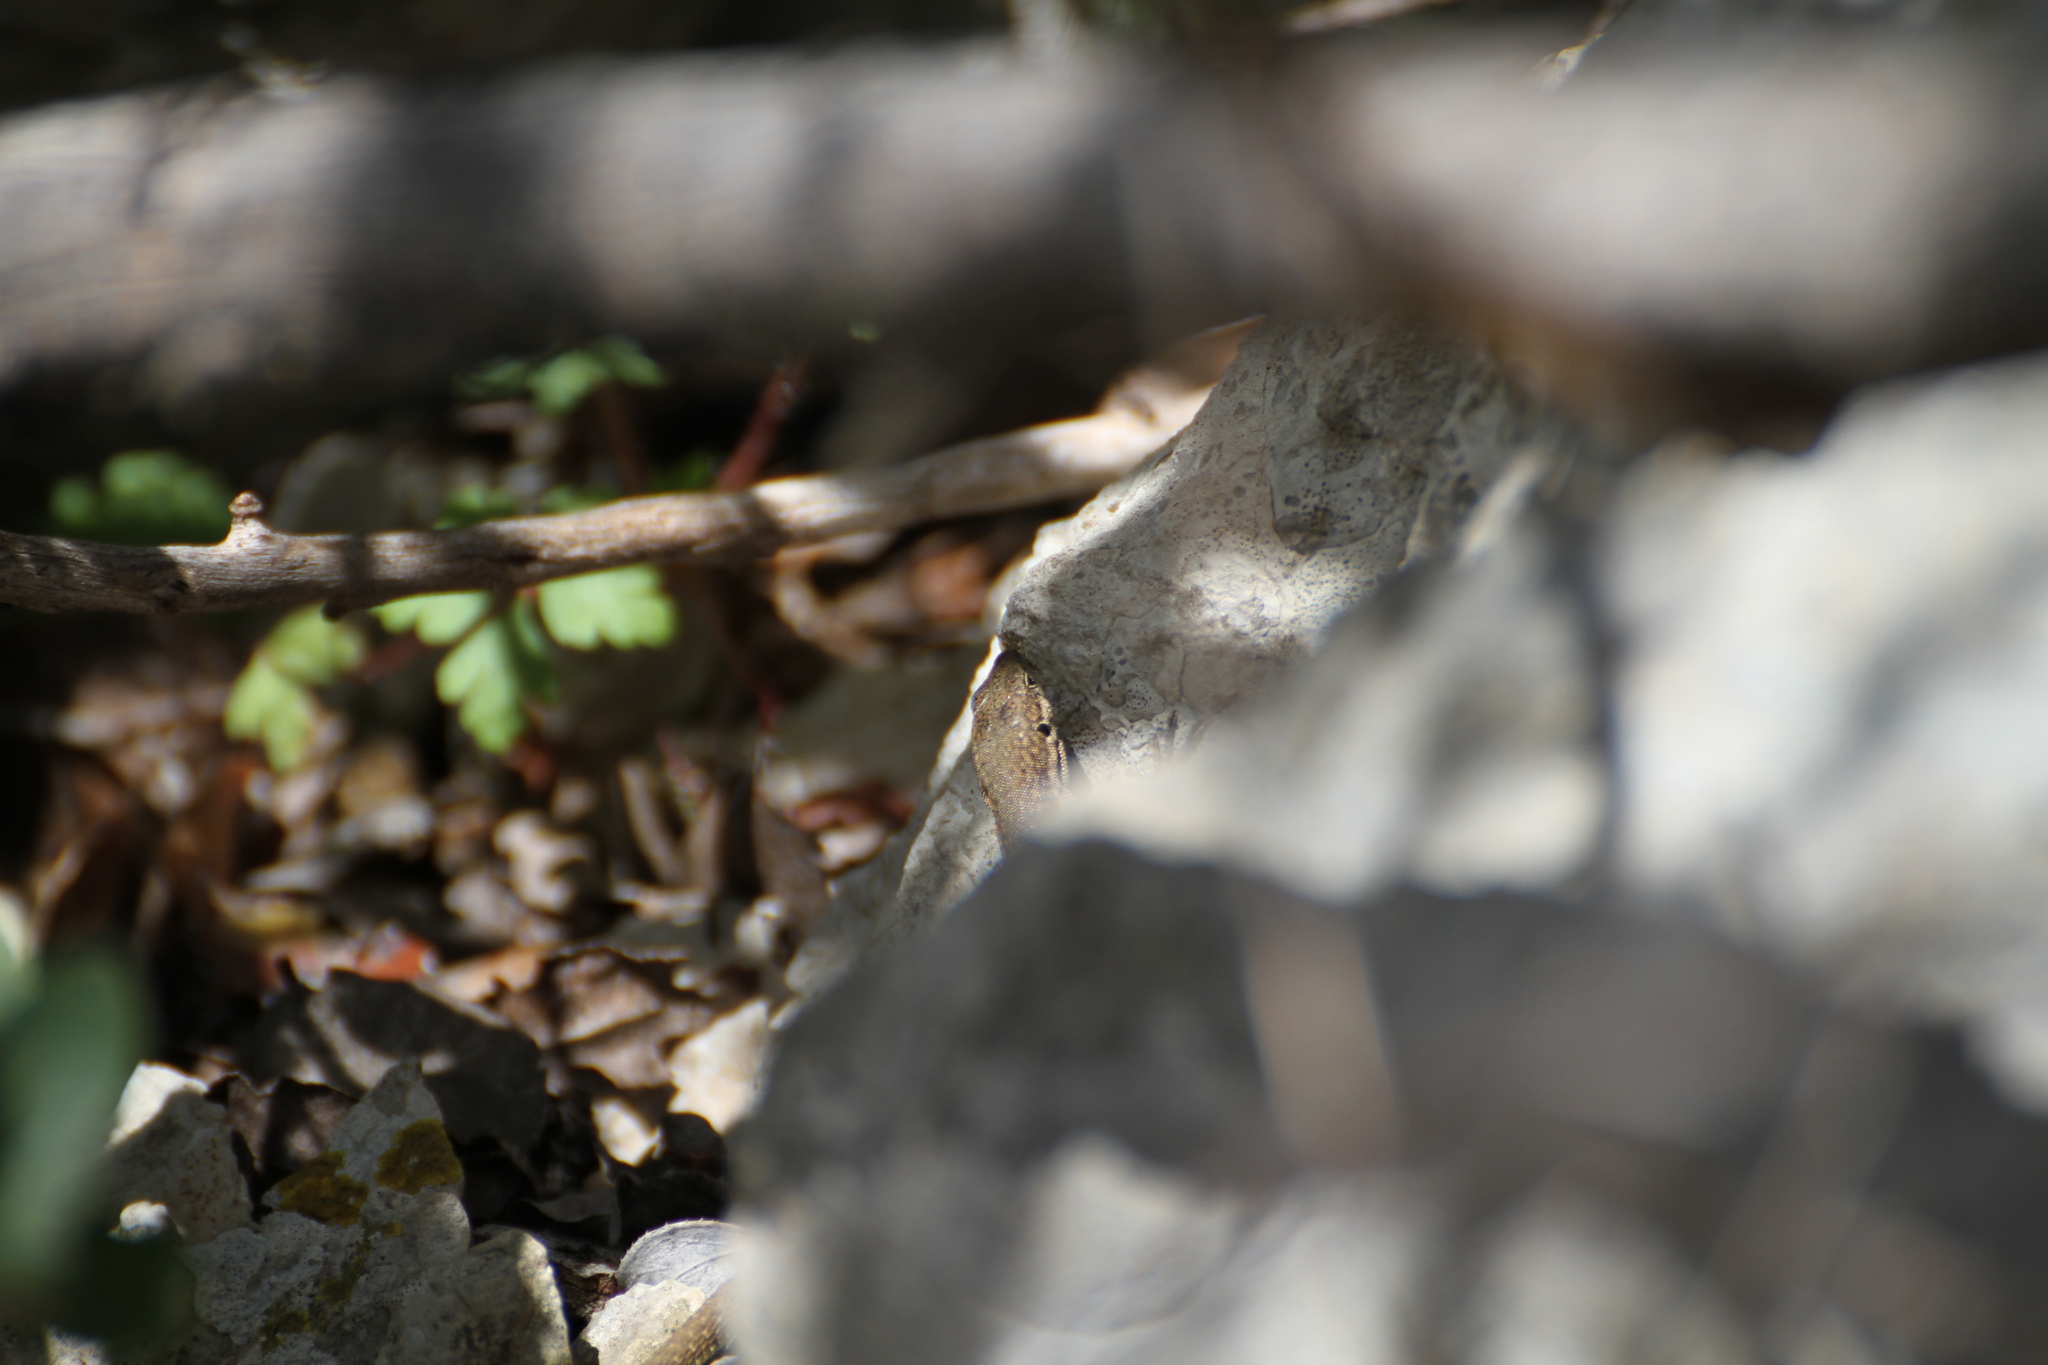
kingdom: Animalia
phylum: Chordata
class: Squamata
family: Lacertidae
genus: Podarcis
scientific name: Podarcis liolepis
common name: Catalonian wall lizard
